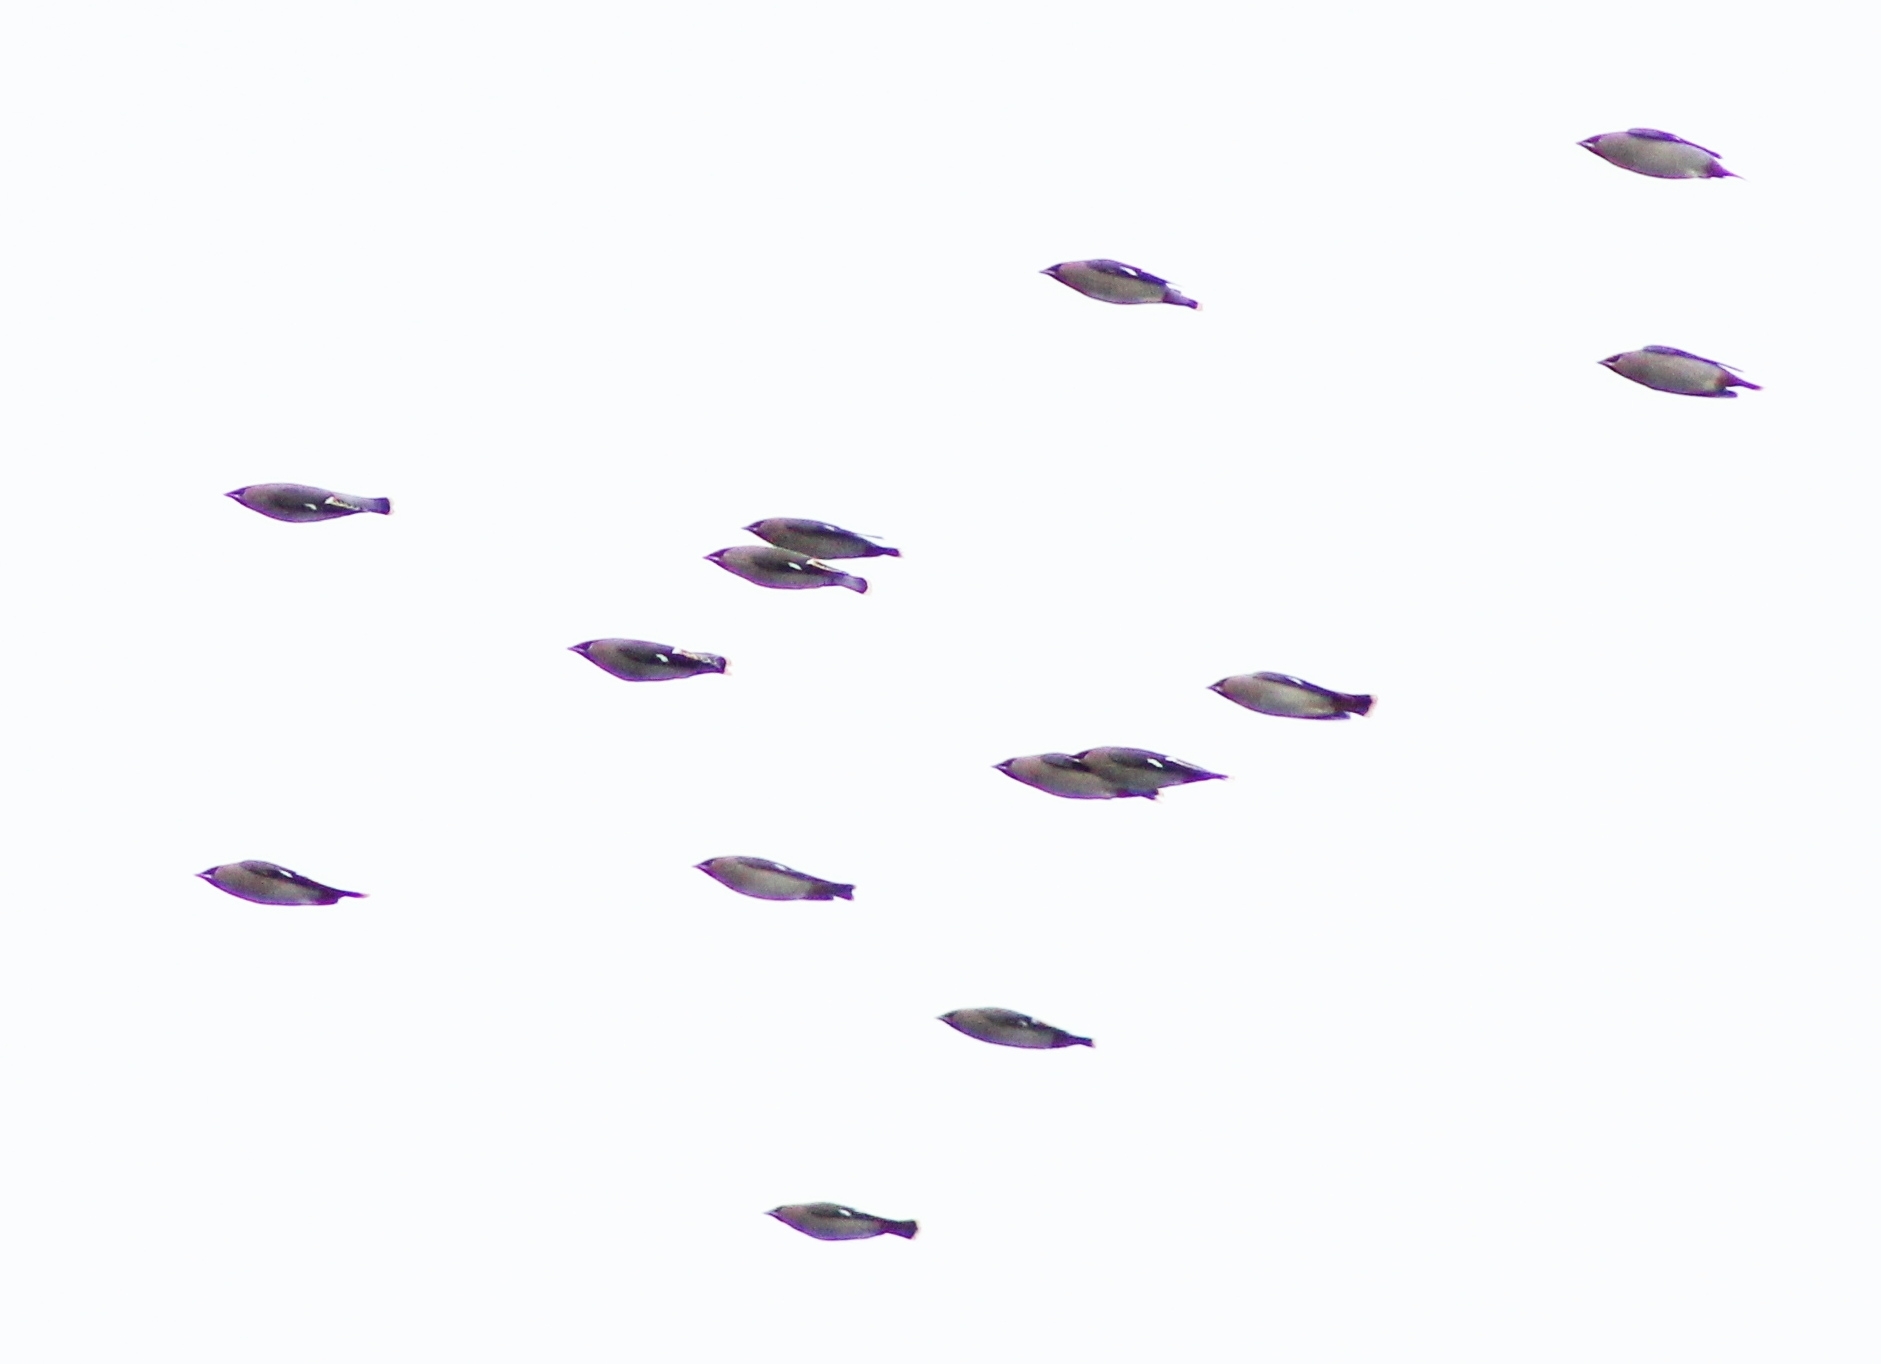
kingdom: Animalia
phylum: Chordata
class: Aves
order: Passeriformes
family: Bombycillidae
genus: Bombycilla
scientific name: Bombycilla garrulus
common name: Bohemian waxwing
